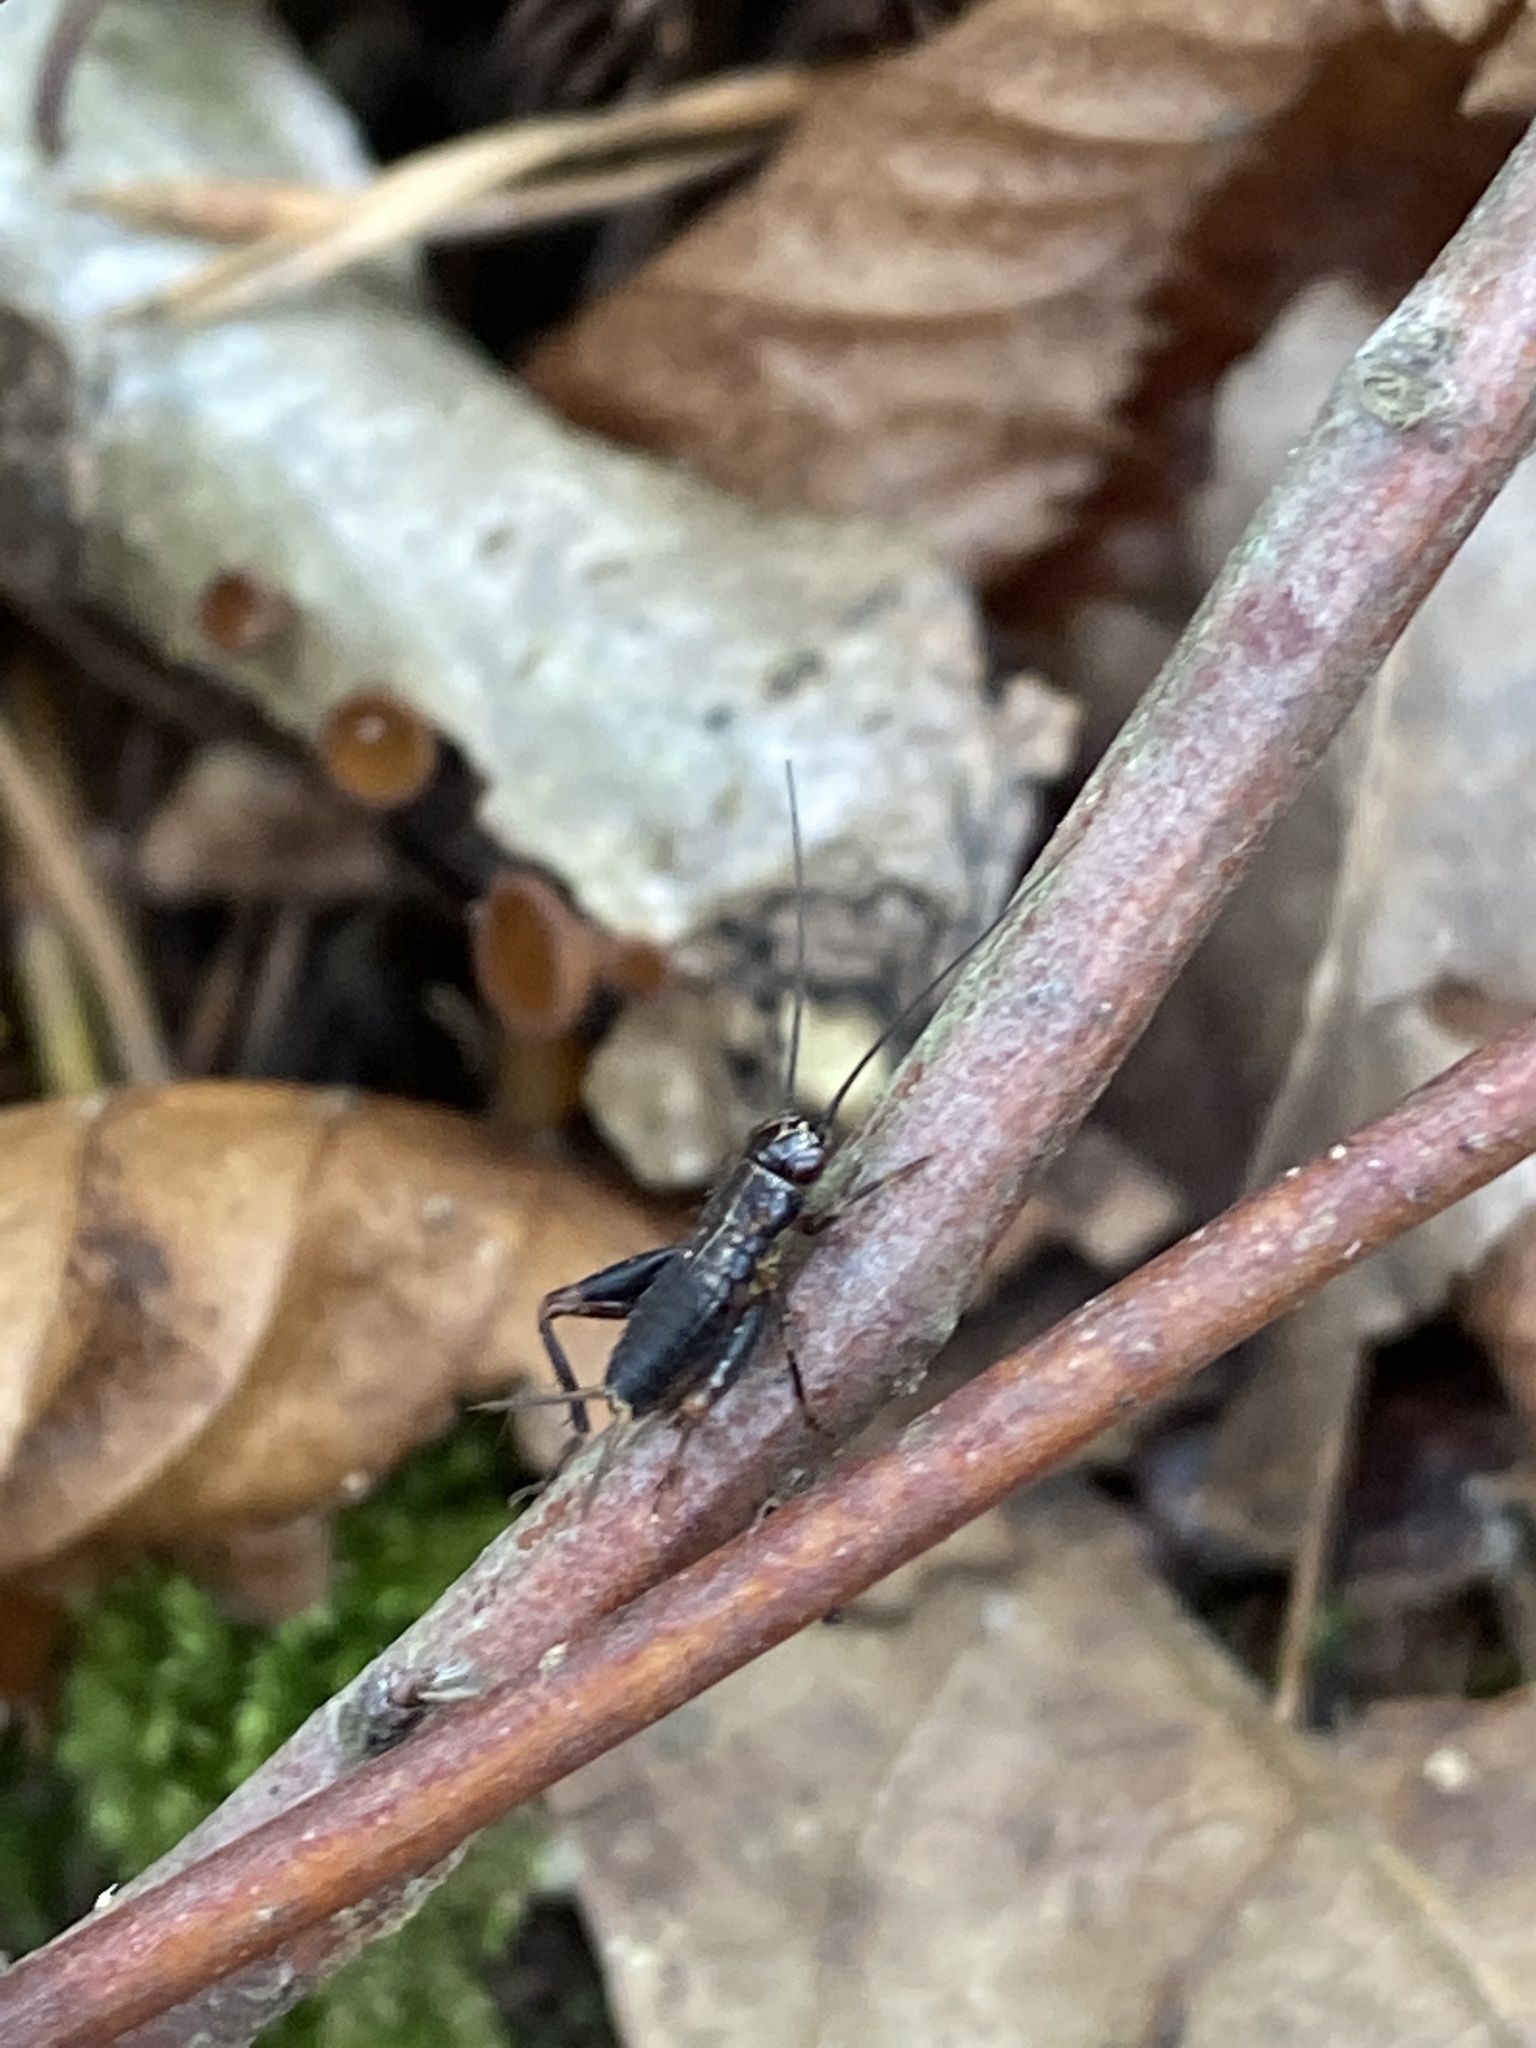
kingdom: Animalia
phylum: Arthropoda
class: Insecta
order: Orthoptera
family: Trigonidiidae
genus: Nemobius
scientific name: Nemobius sylvestris
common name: Wood-cricket
